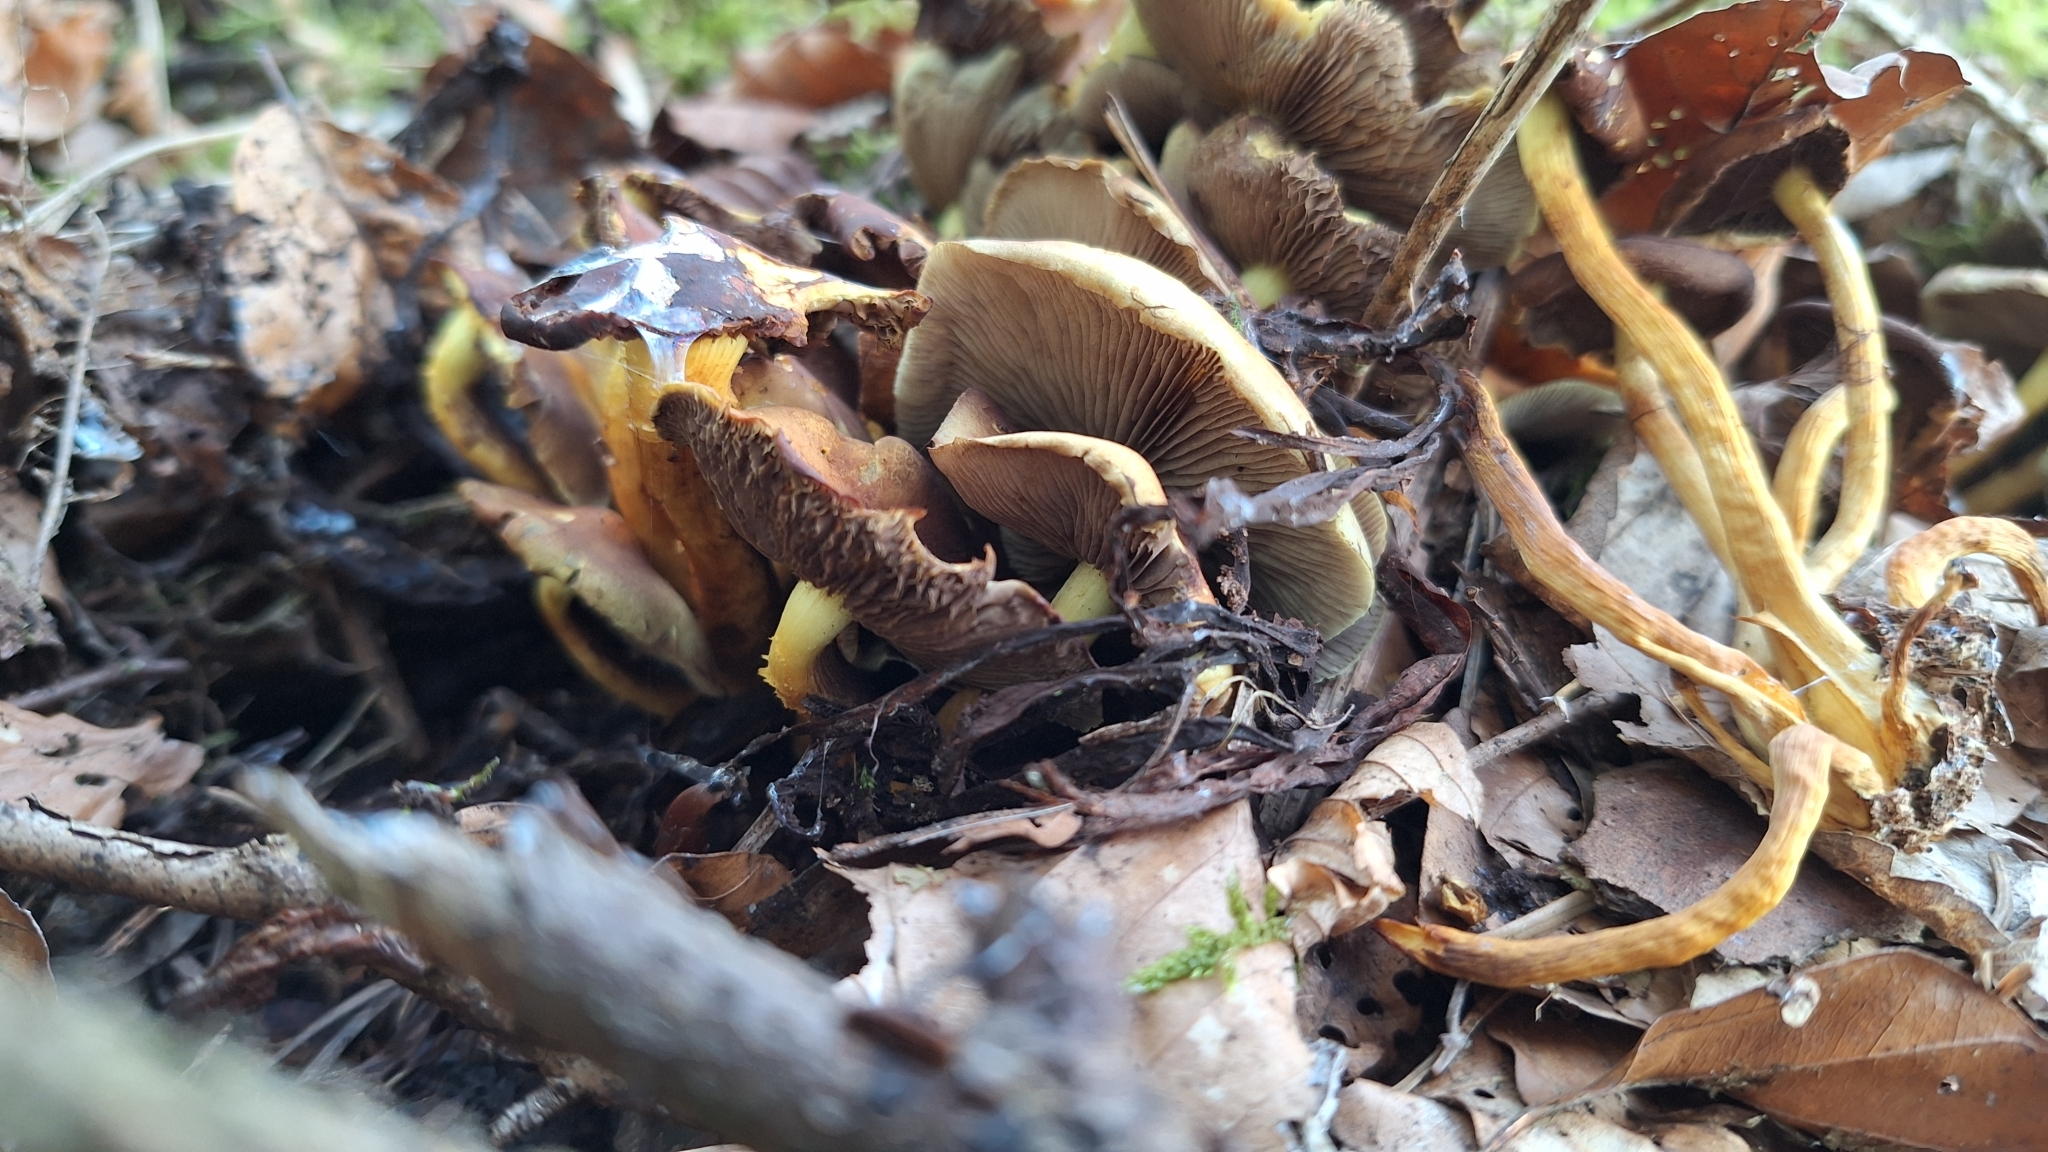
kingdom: Fungi
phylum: Basidiomycota
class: Agaricomycetes
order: Agaricales
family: Strophariaceae
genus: Hypholoma
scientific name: Hypholoma fasciculare
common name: Sulphur tuft
